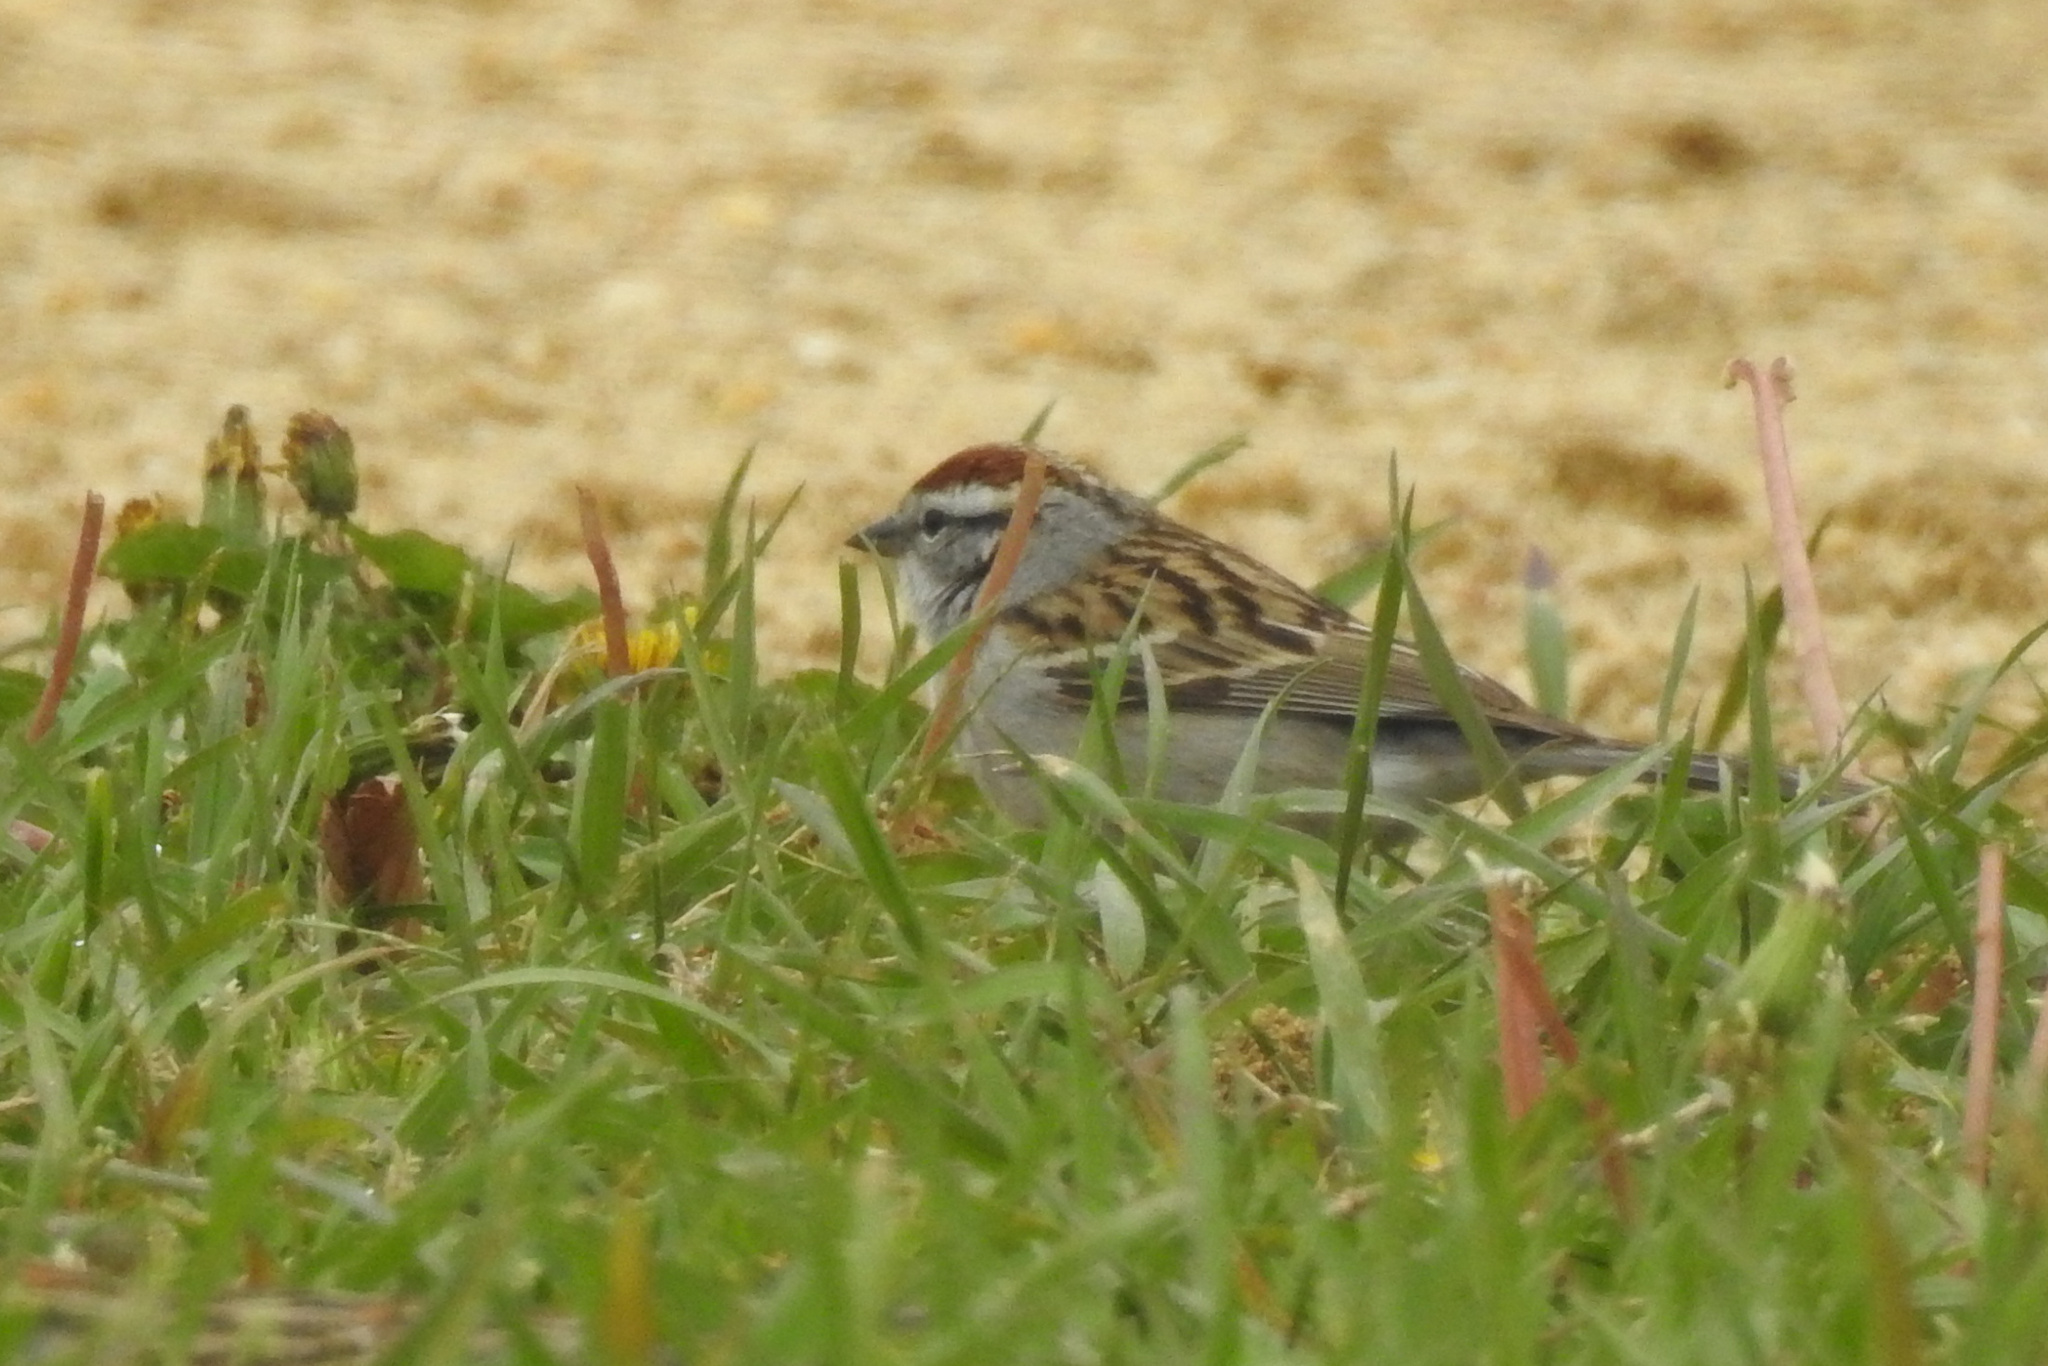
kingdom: Animalia
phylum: Chordata
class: Aves
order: Passeriformes
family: Passerellidae
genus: Spizella
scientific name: Spizella passerina
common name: Chipping sparrow
